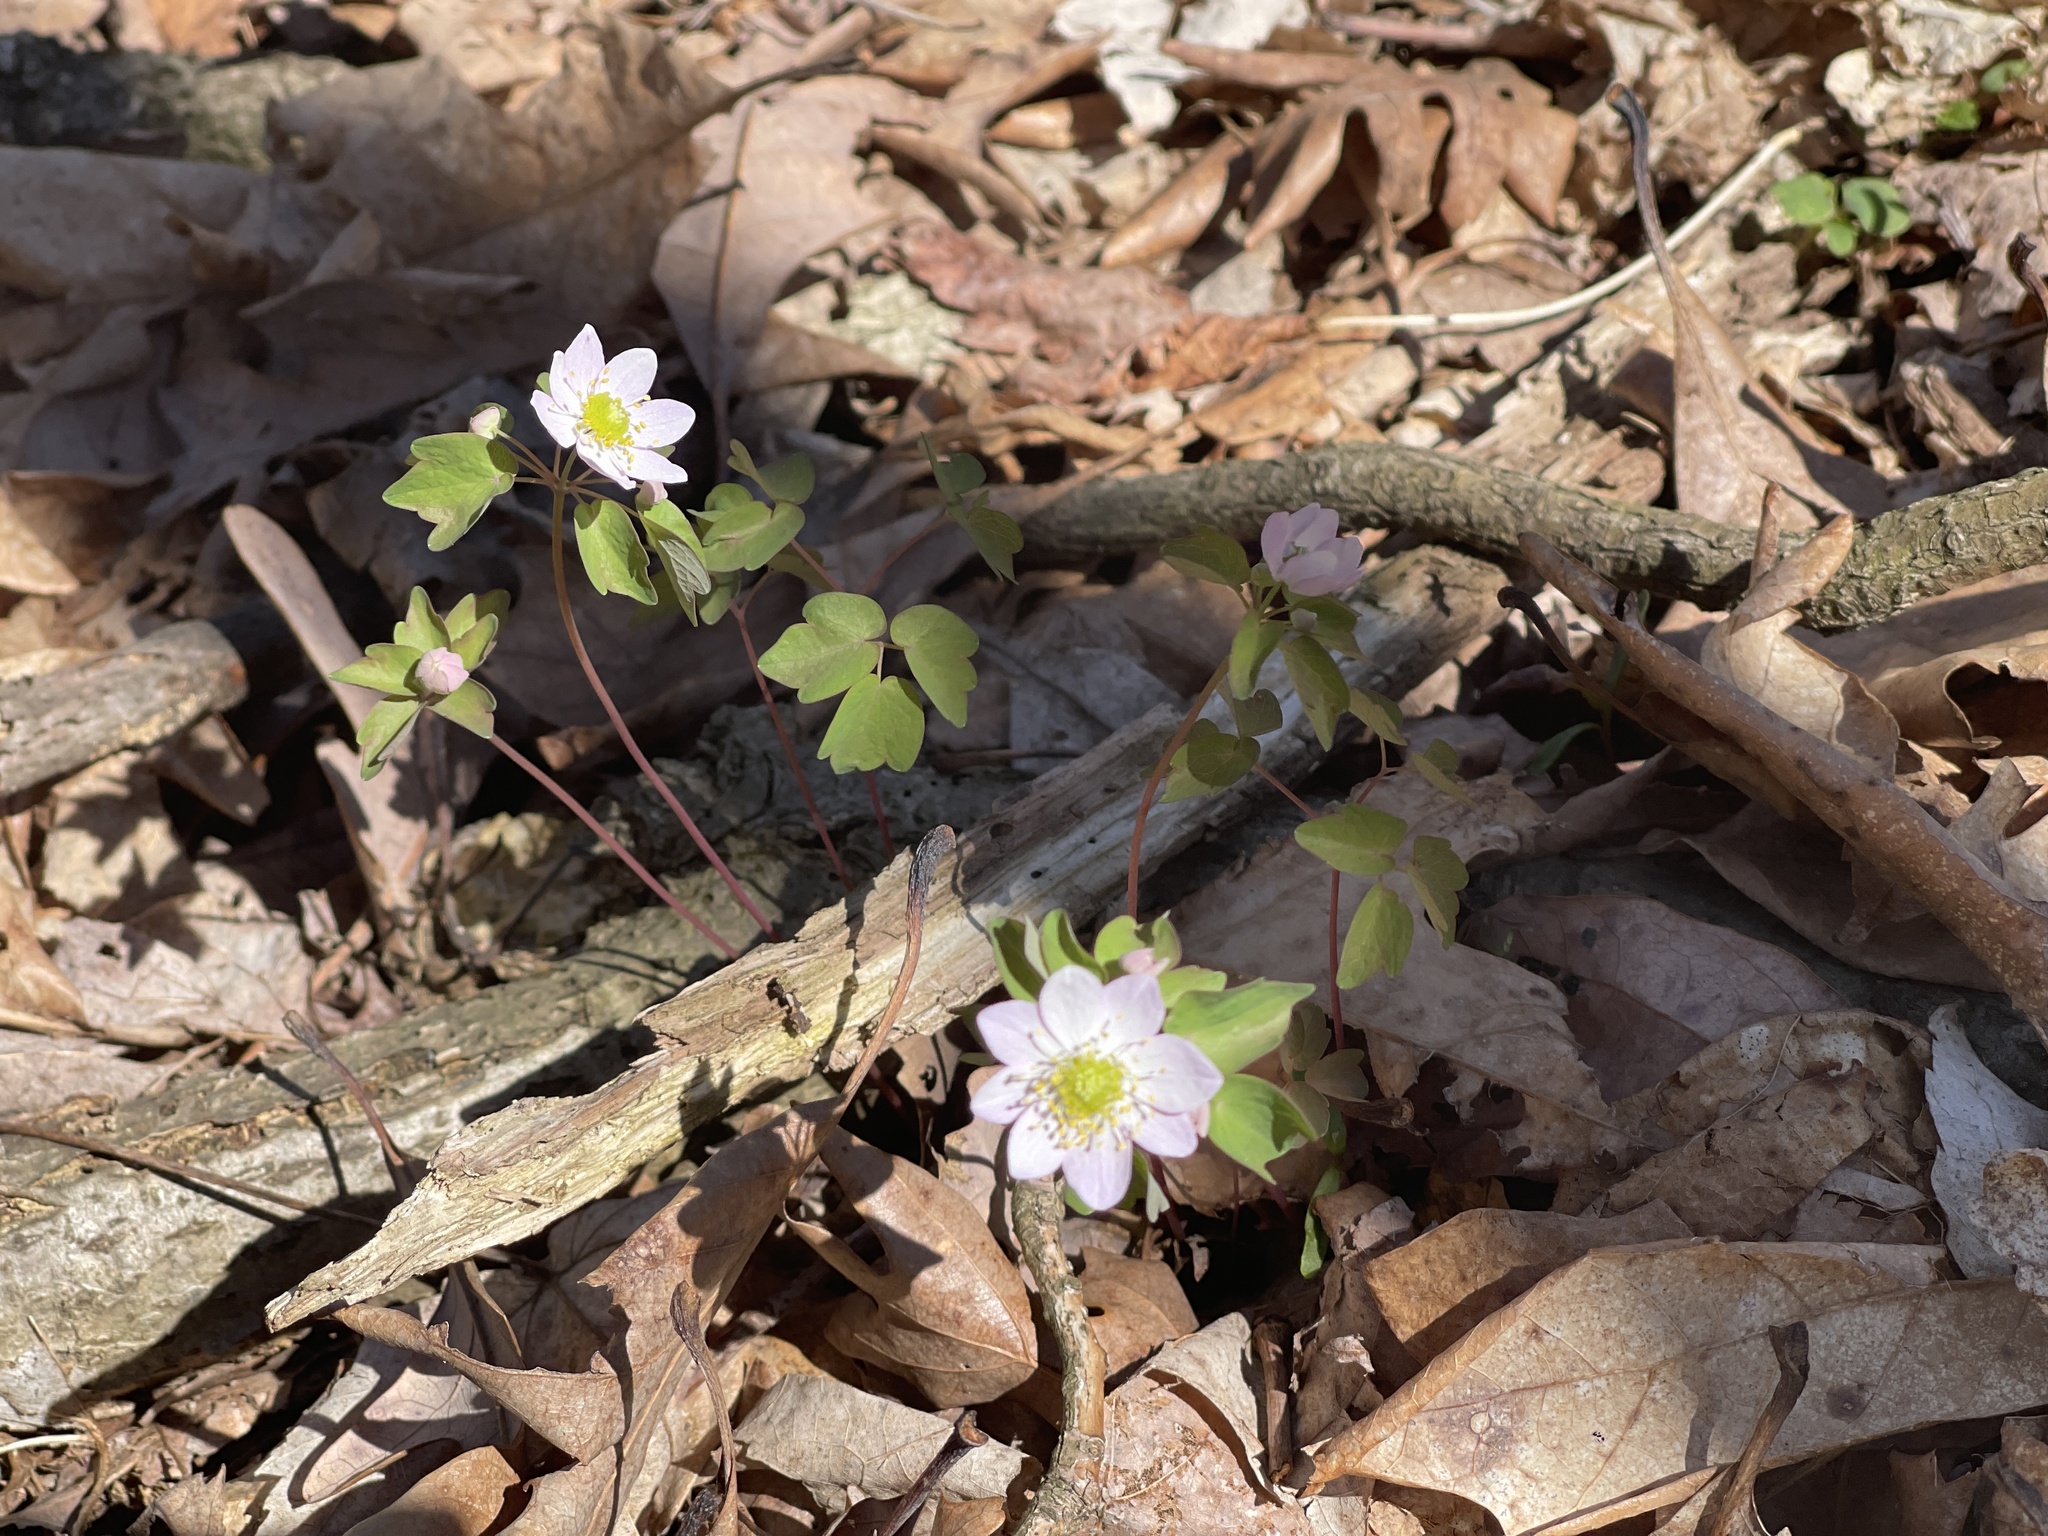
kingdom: Plantae
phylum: Tracheophyta
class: Magnoliopsida
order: Ranunculales
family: Ranunculaceae
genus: Thalictrum
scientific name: Thalictrum thalictroides
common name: Rue-anemone
